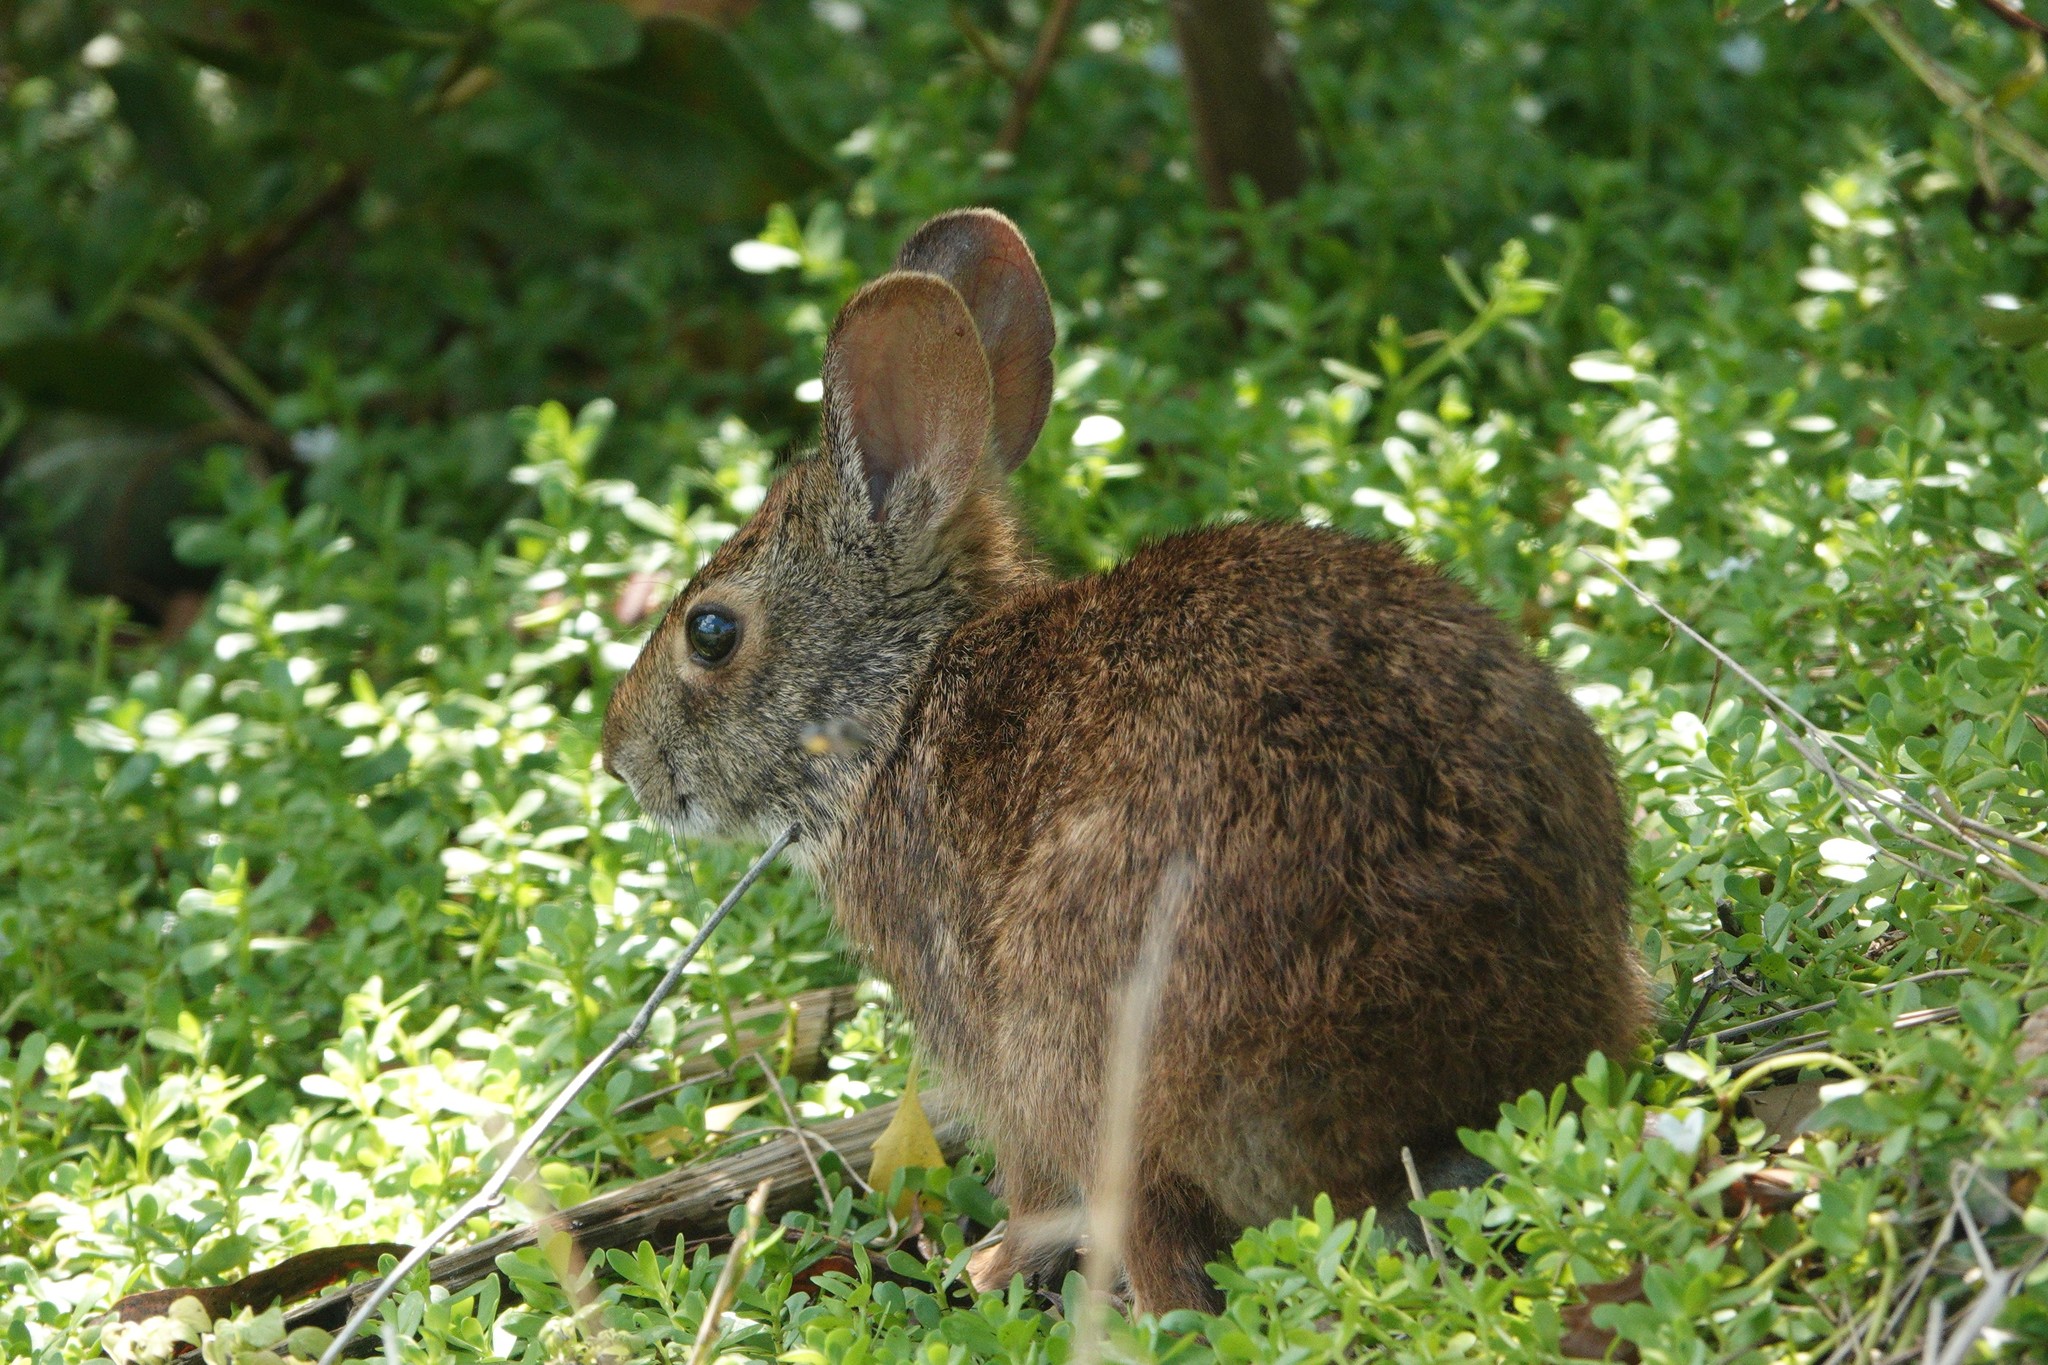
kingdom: Animalia
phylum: Chordata
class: Mammalia
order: Lagomorpha
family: Leporidae
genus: Sylvilagus
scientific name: Sylvilagus palustris
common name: Marsh rabbit
